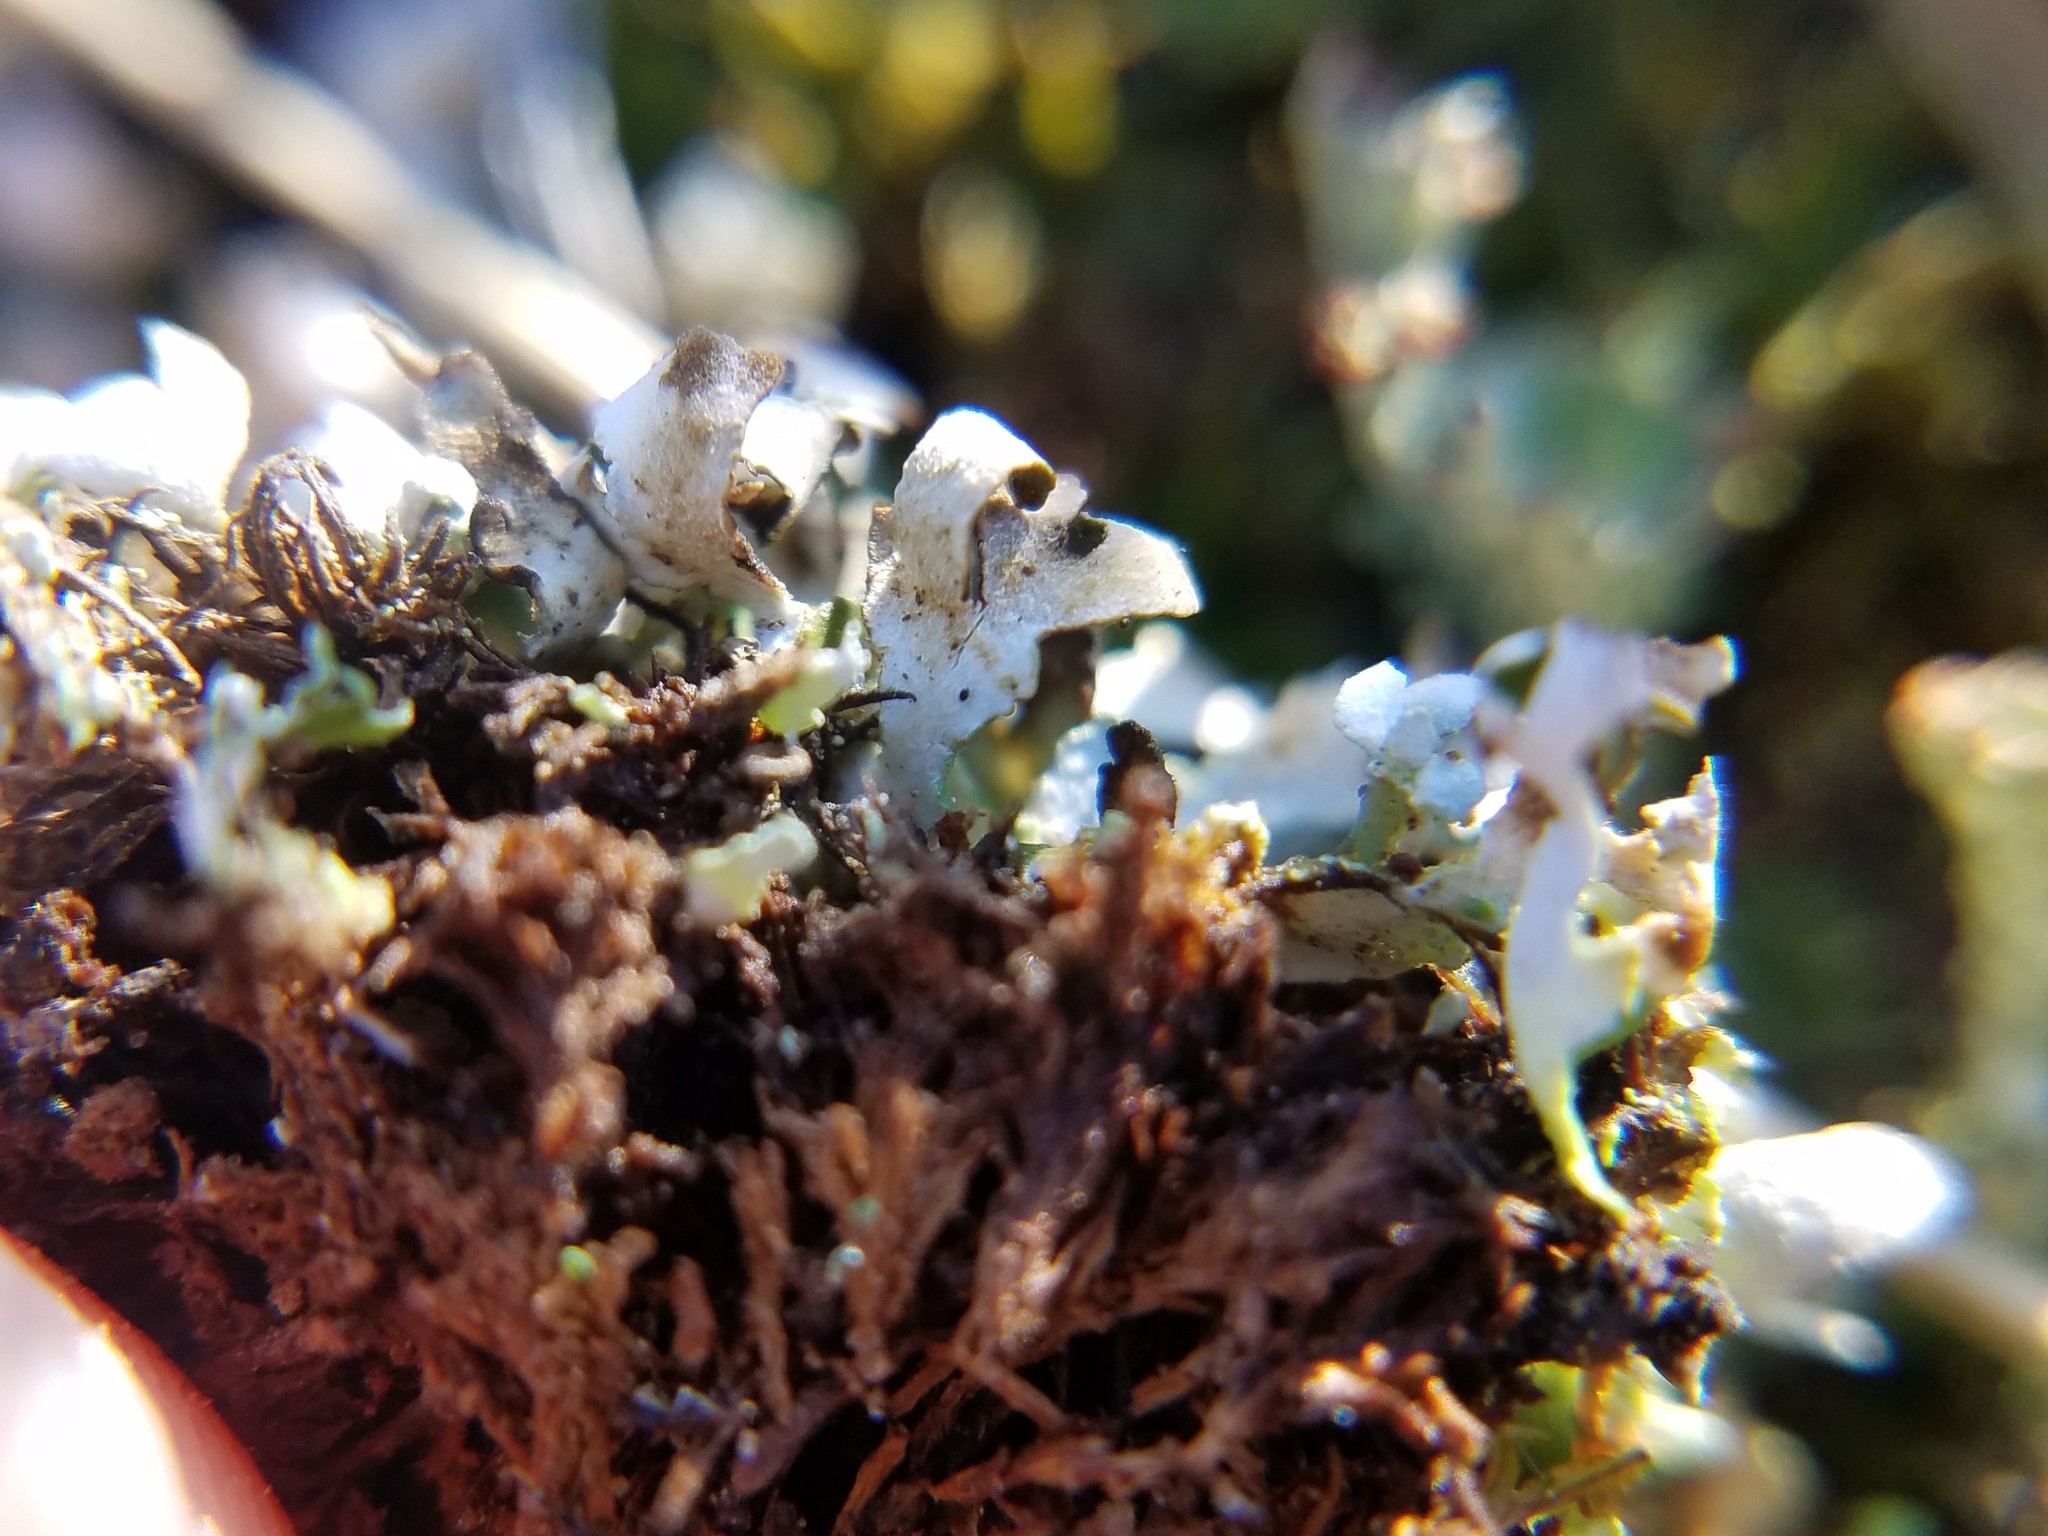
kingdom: Fungi
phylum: Ascomycota
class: Lecanoromycetes
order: Lecanorales
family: Cladoniaceae
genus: Cladonia
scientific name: Cladonia apodocarpa
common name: Stalkless cladonia
